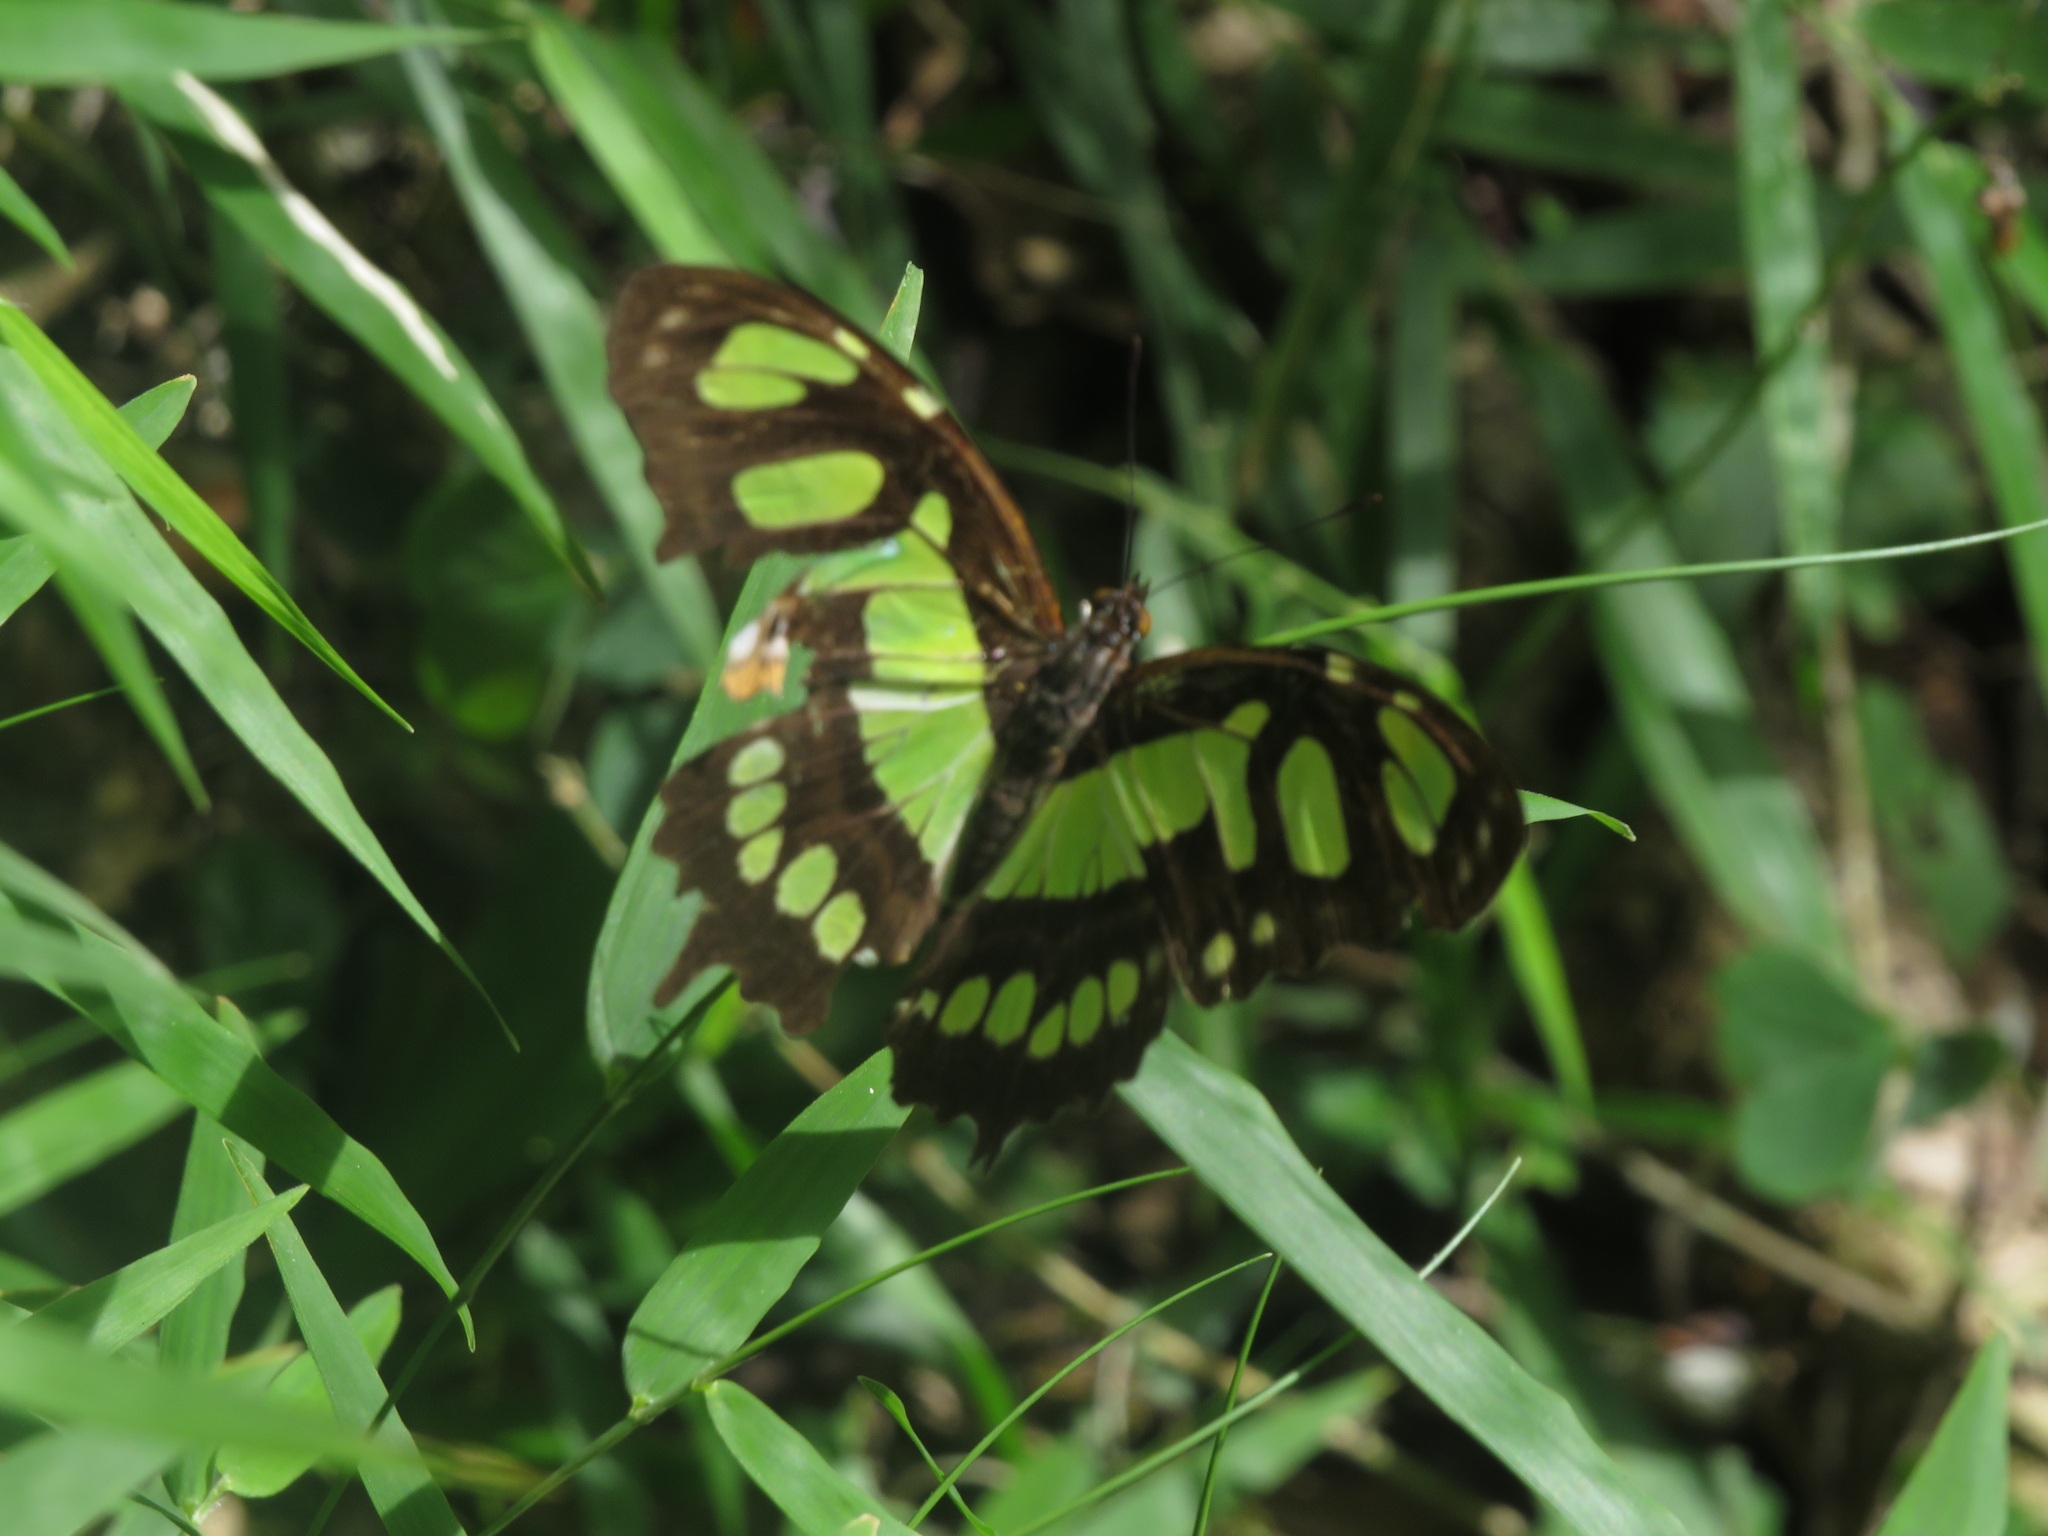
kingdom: Animalia
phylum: Arthropoda
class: Insecta
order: Lepidoptera
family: Nymphalidae
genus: Siproeta
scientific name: Siproeta stelenes
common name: Malachite
